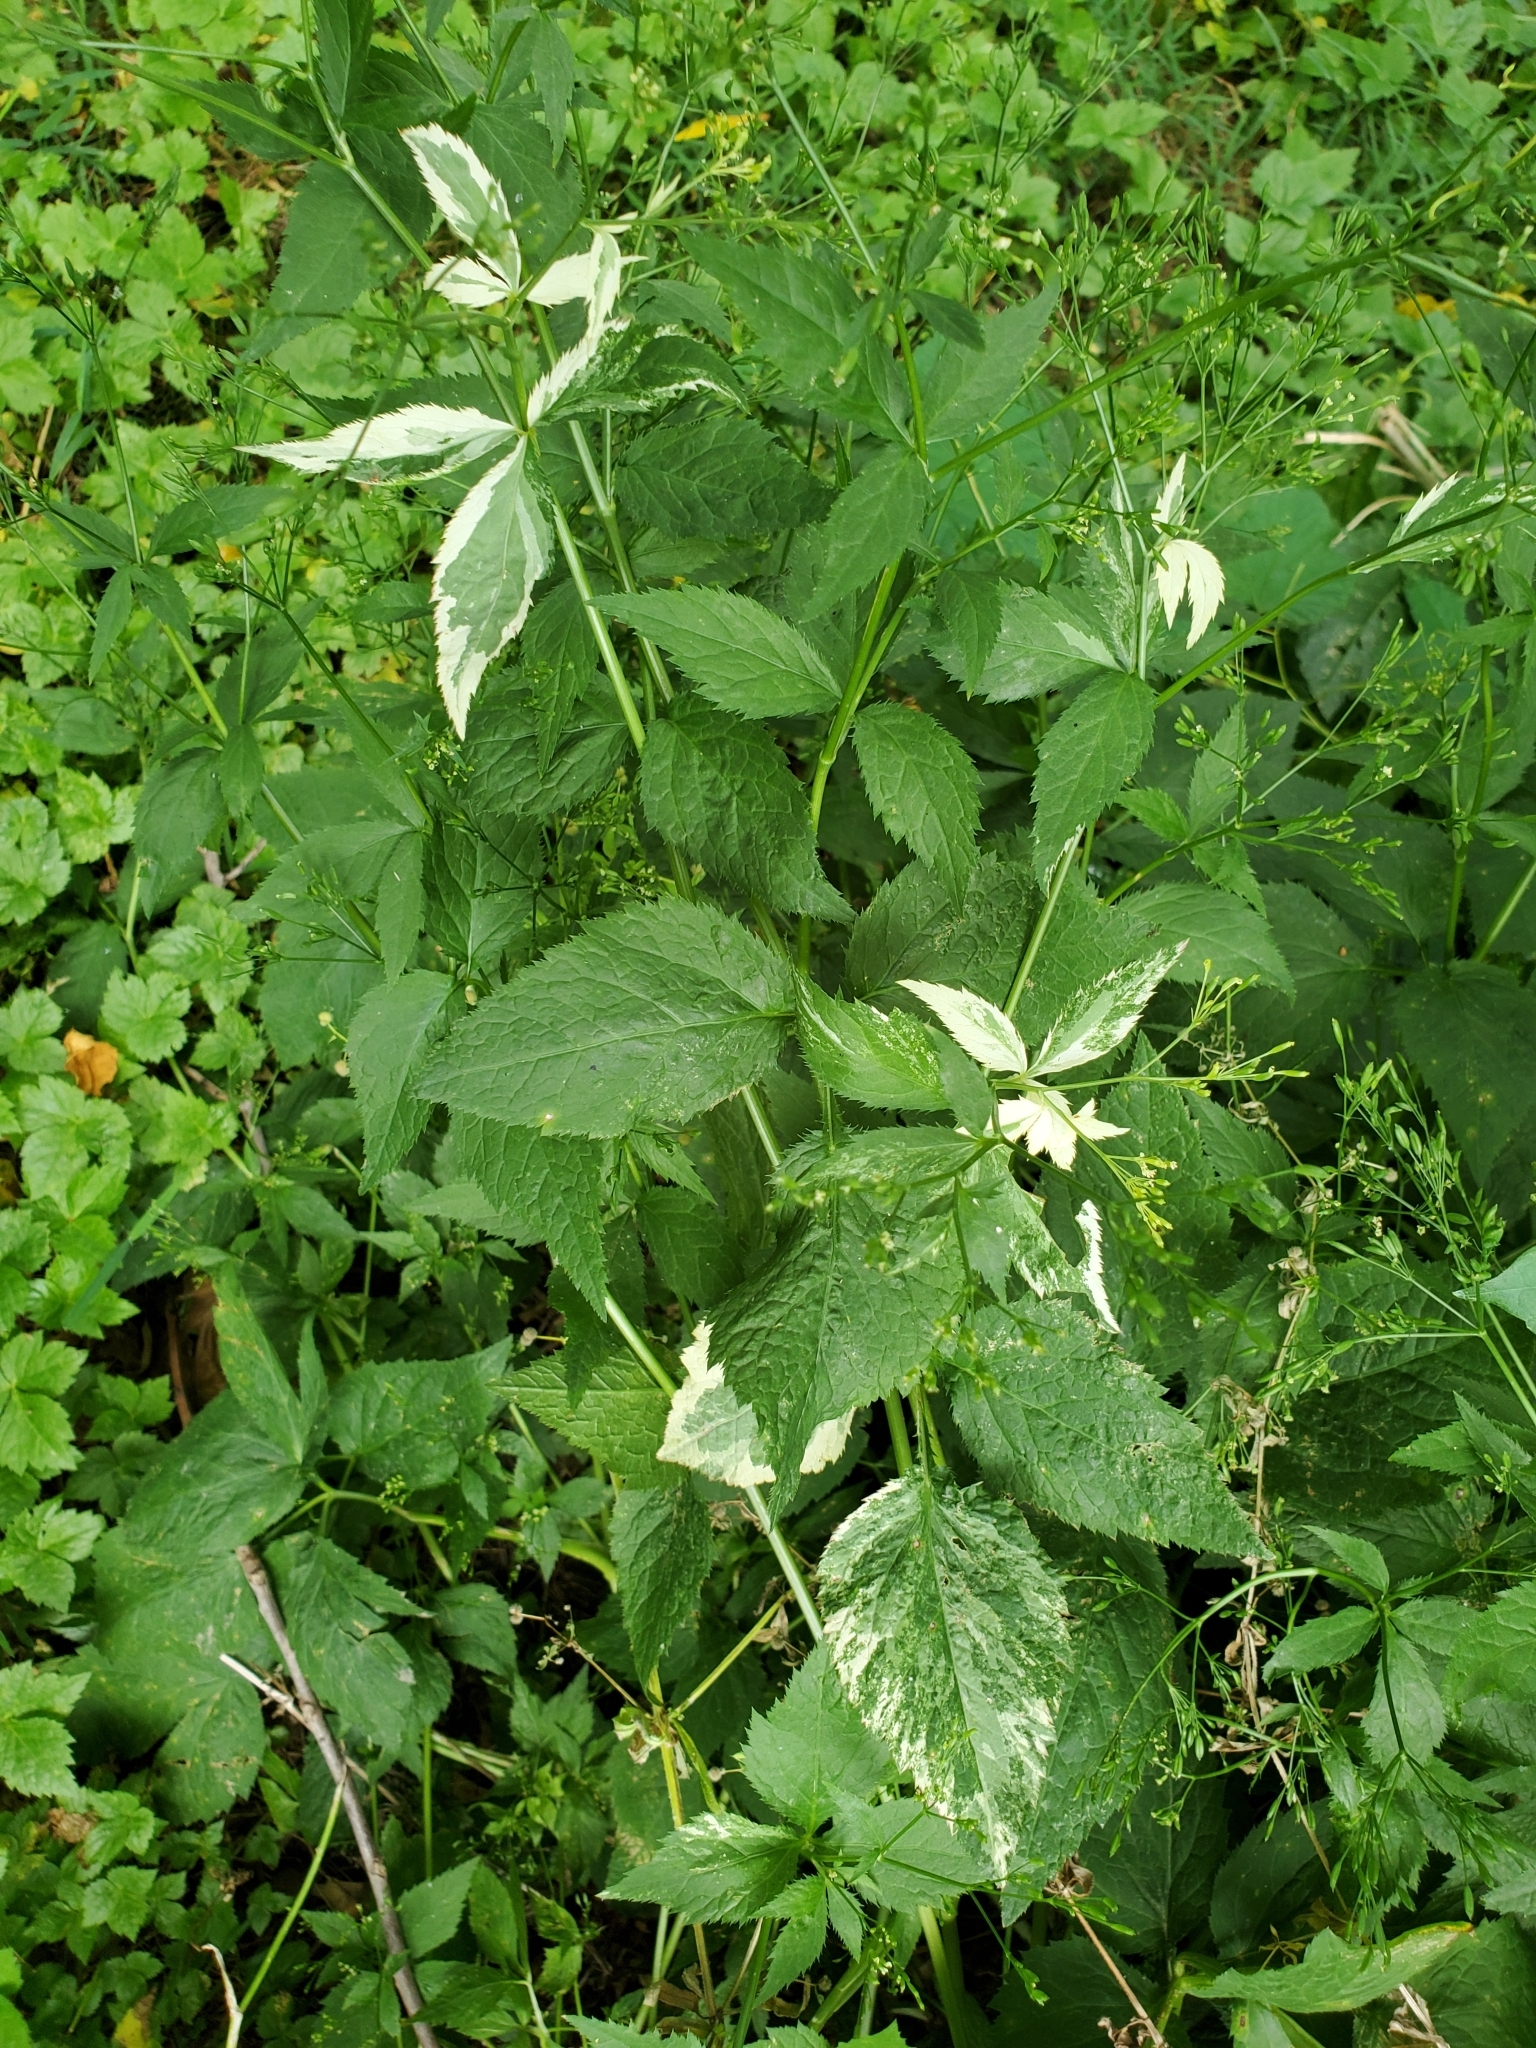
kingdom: Plantae
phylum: Tracheophyta
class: Magnoliopsida
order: Apiales
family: Apiaceae
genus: Cryptotaenia
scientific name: Cryptotaenia canadensis
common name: Honewort
